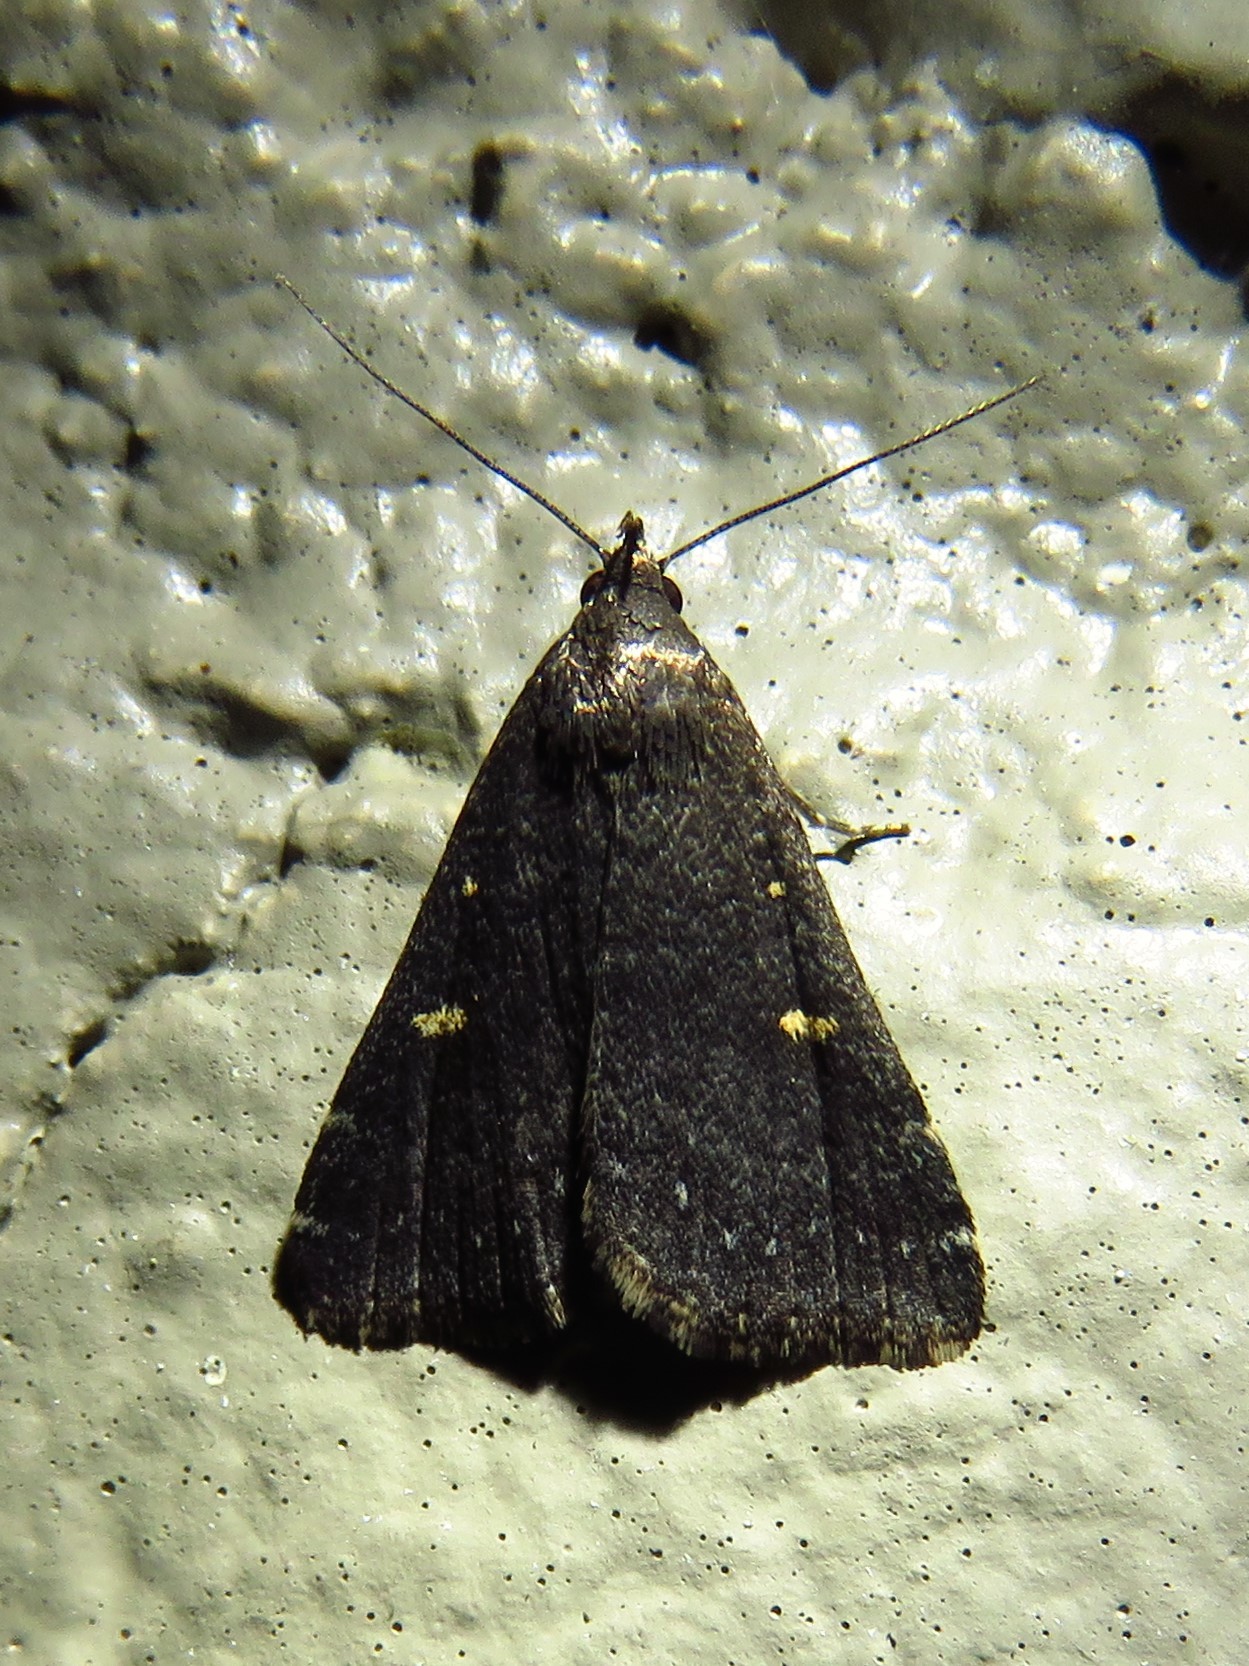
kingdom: Animalia
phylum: Arthropoda
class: Insecta
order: Lepidoptera
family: Erebidae
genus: Tetanolita
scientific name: Tetanolita mynesalis
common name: Smoky tetanolita moth
